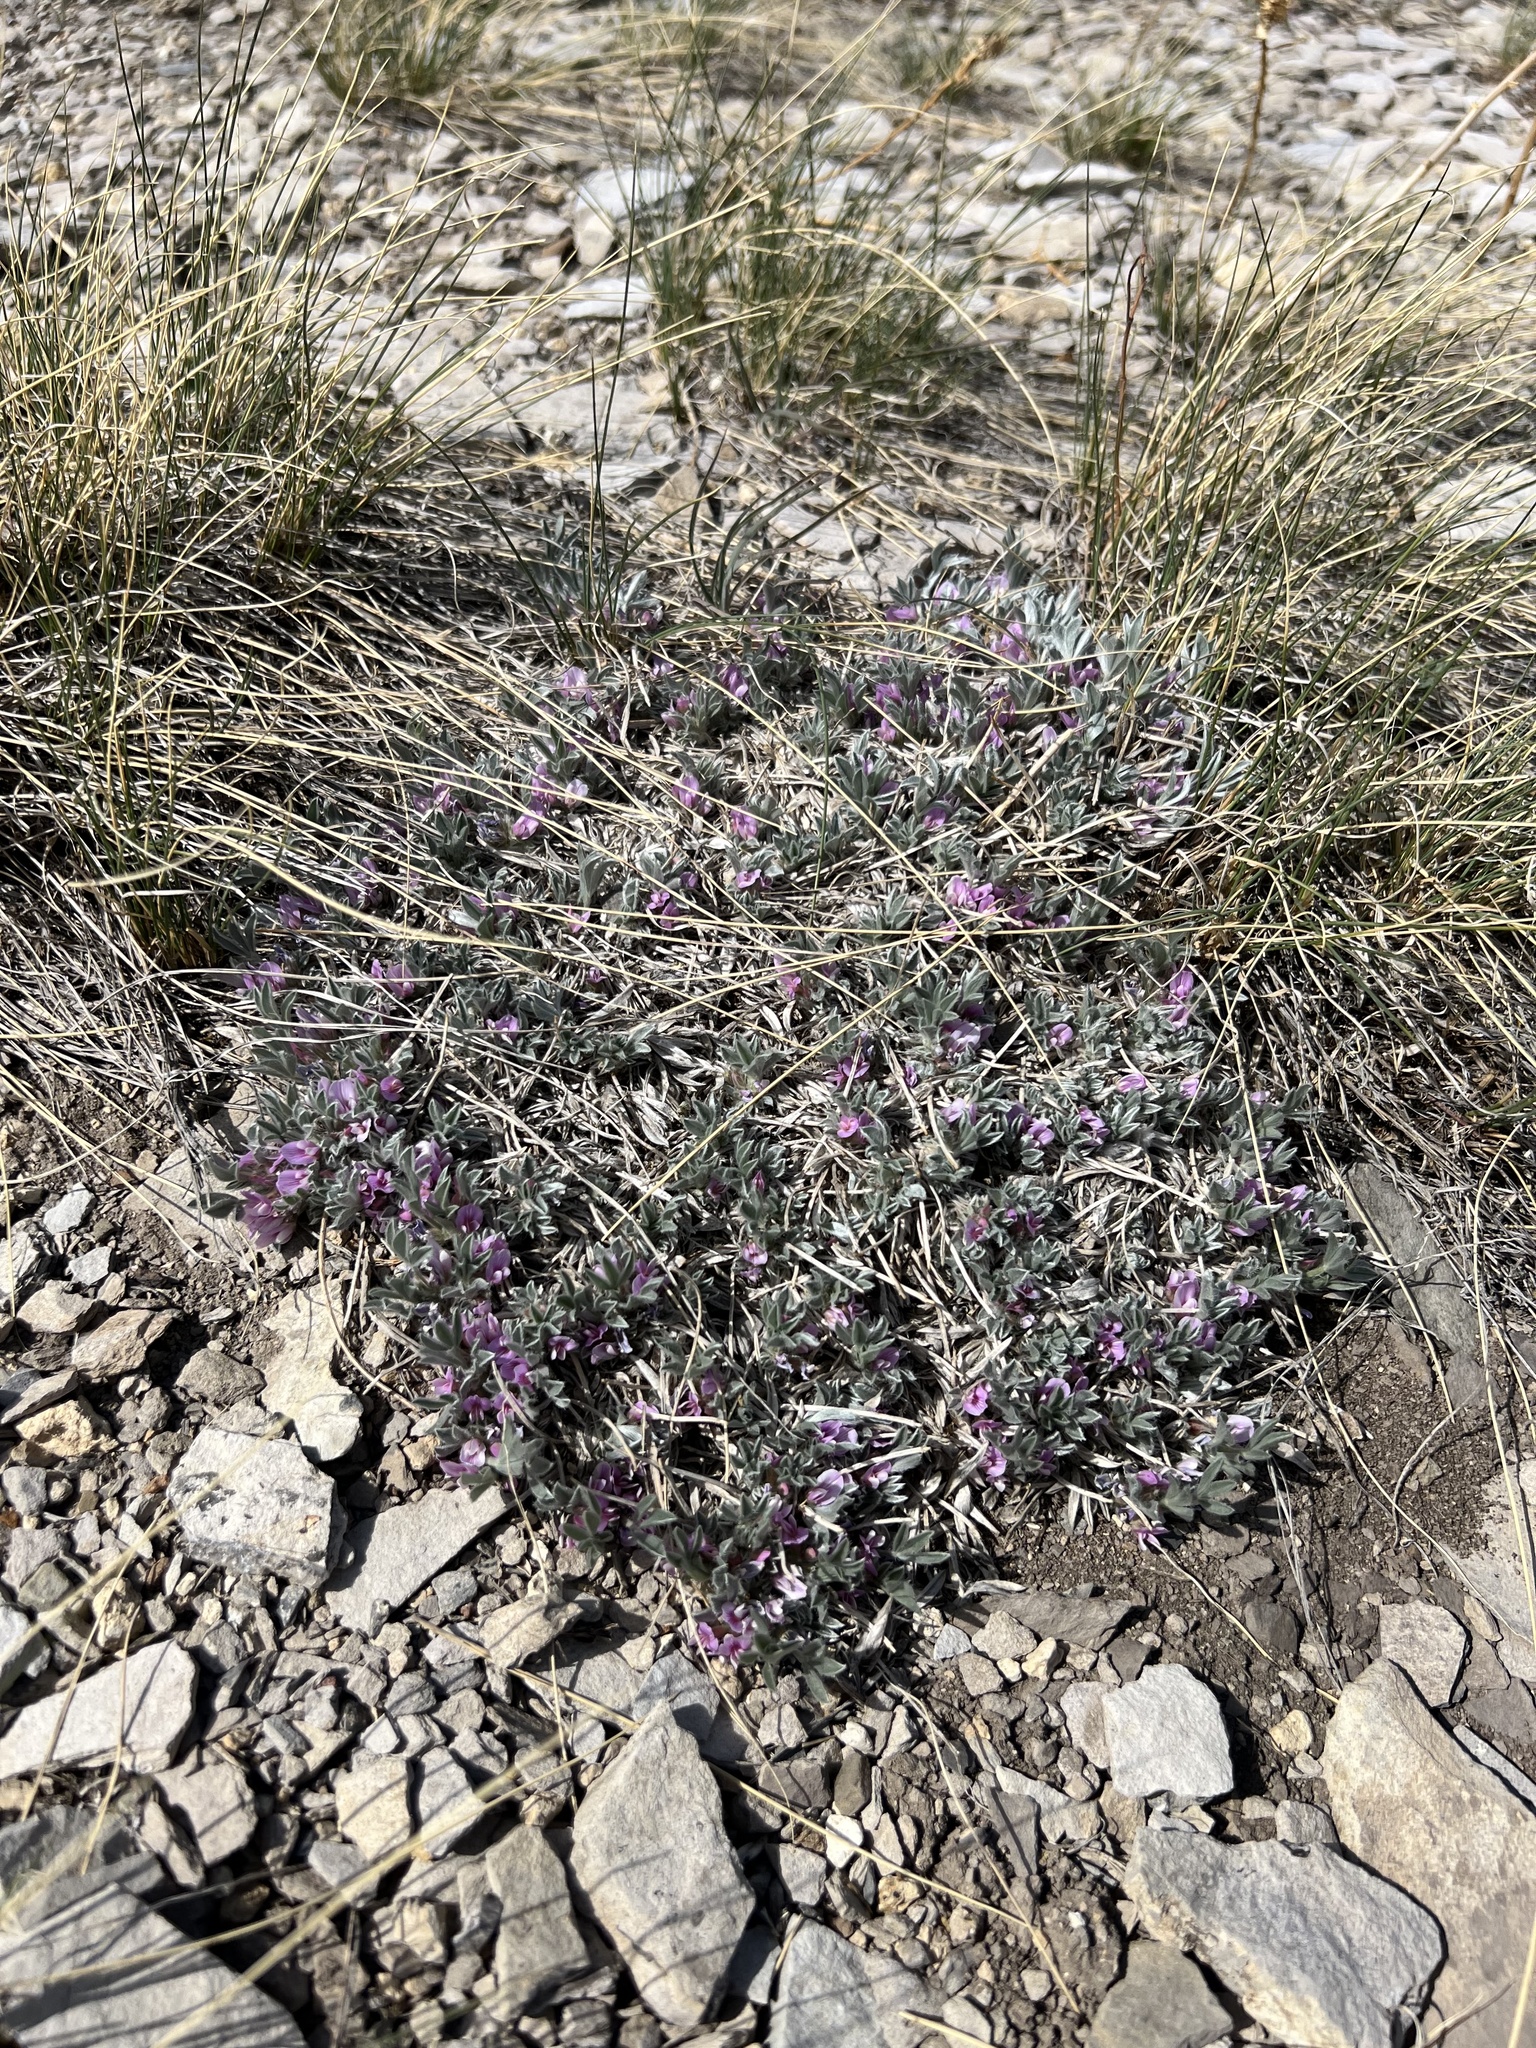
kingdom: Plantae
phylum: Tracheophyta
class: Magnoliopsida
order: Fabales
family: Fabaceae
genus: Astragalus
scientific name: Astragalus tridactylicus
